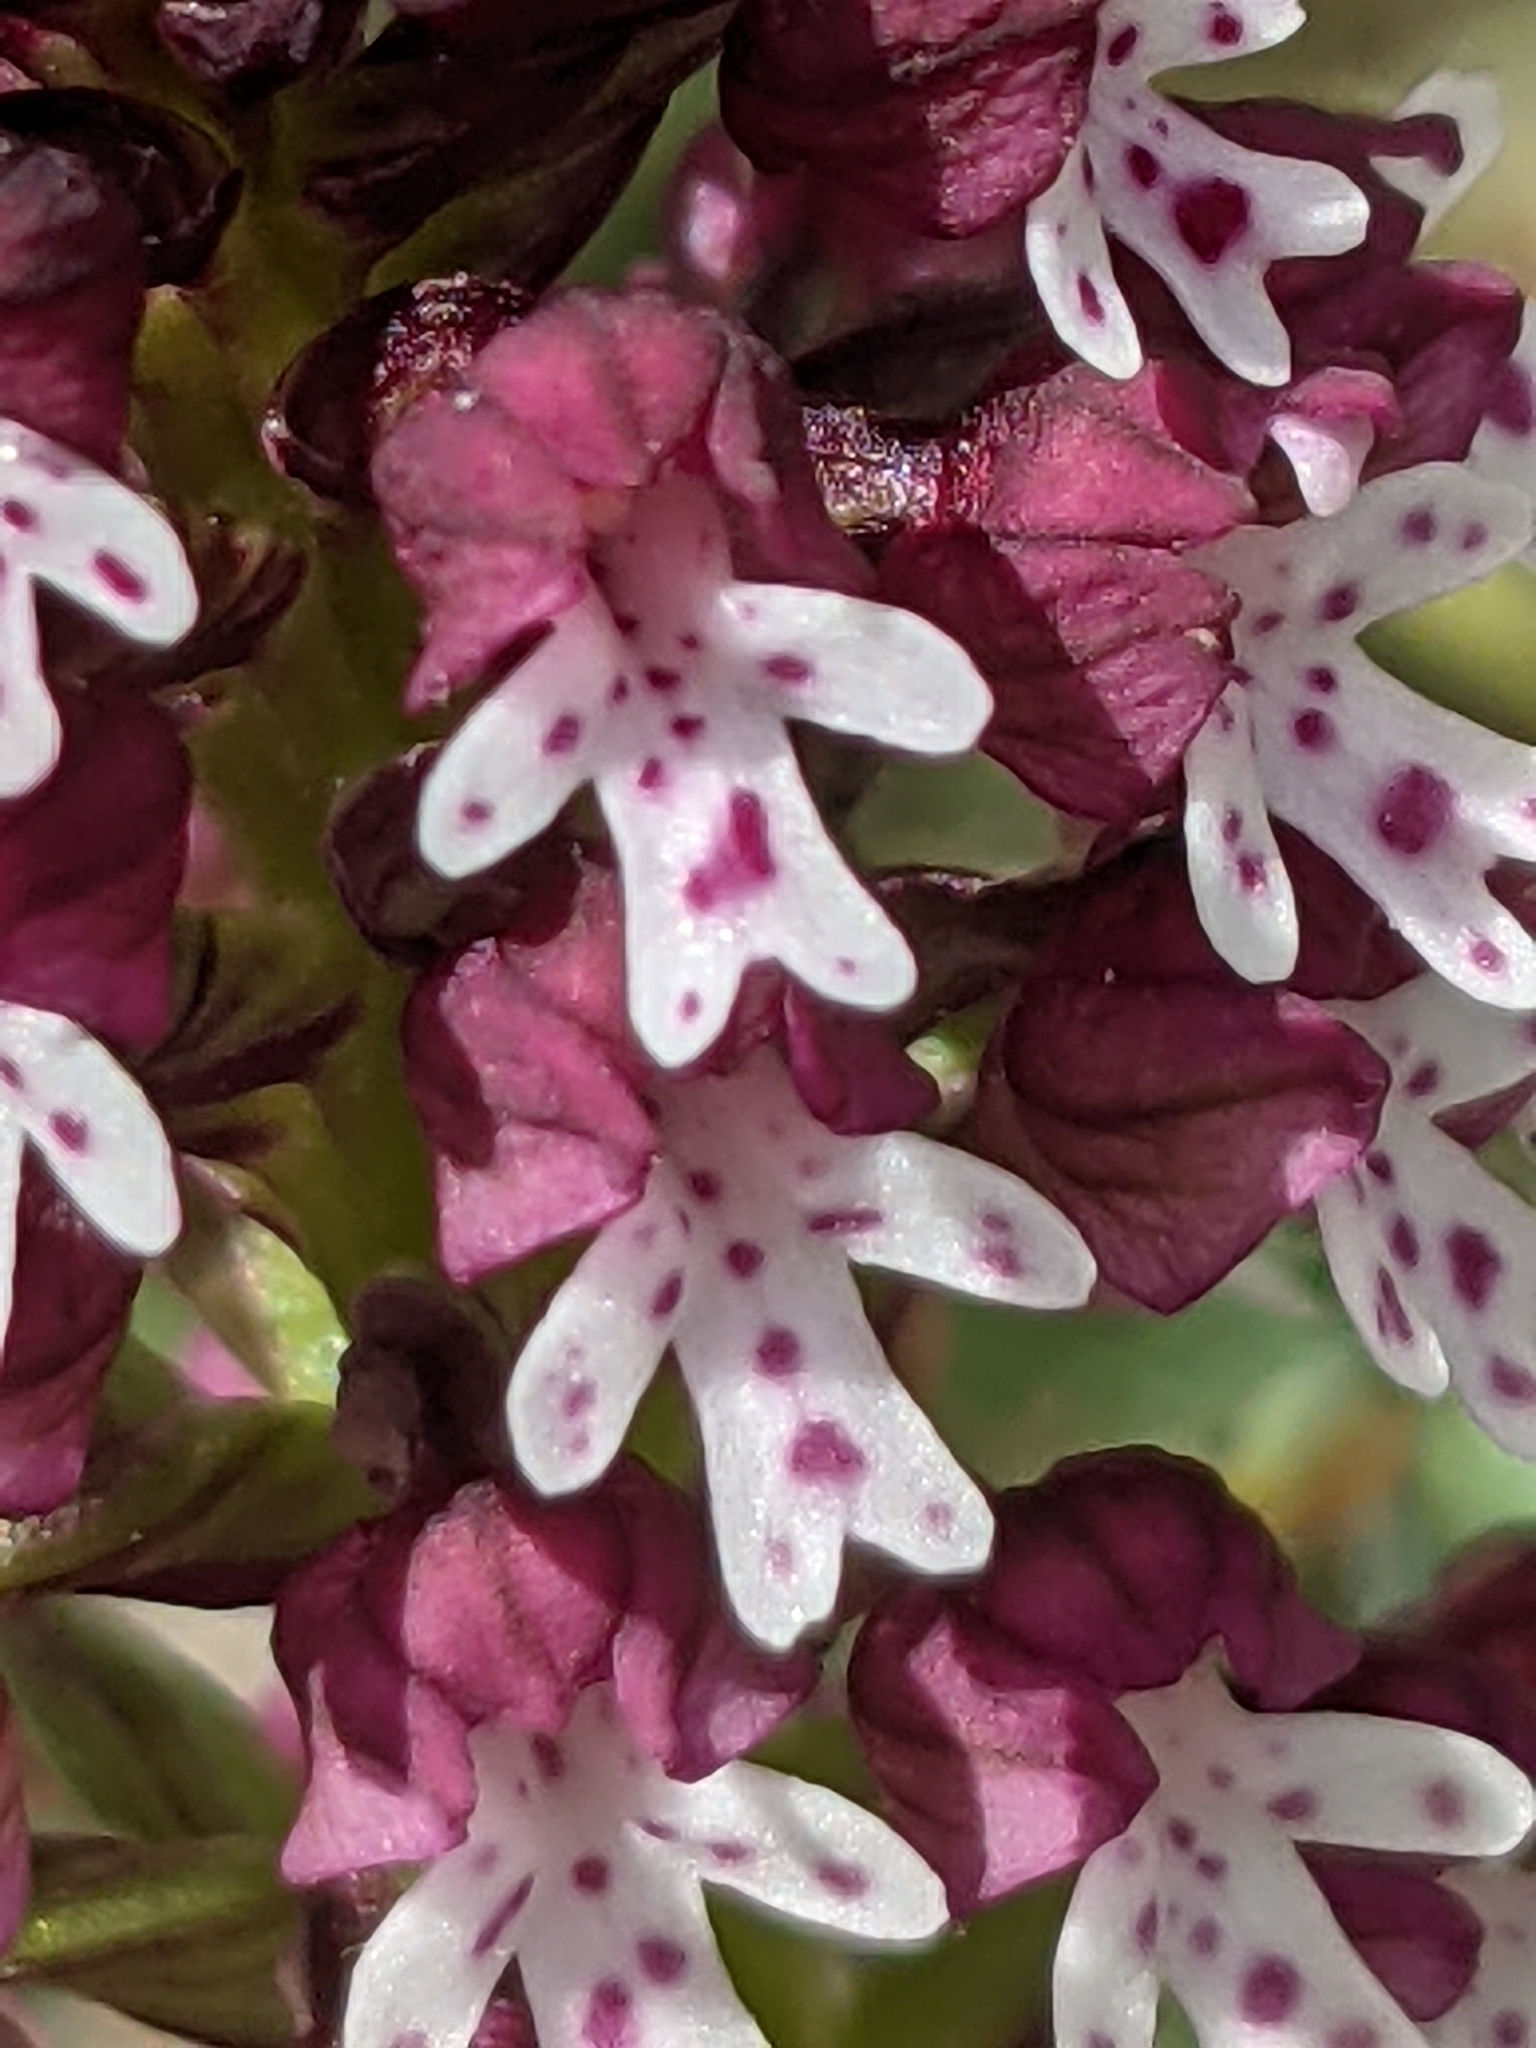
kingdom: Plantae
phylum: Tracheophyta
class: Liliopsida
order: Asparagales
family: Orchidaceae
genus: Neotinea
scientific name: Neotinea ustulata
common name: Burnt orchid
